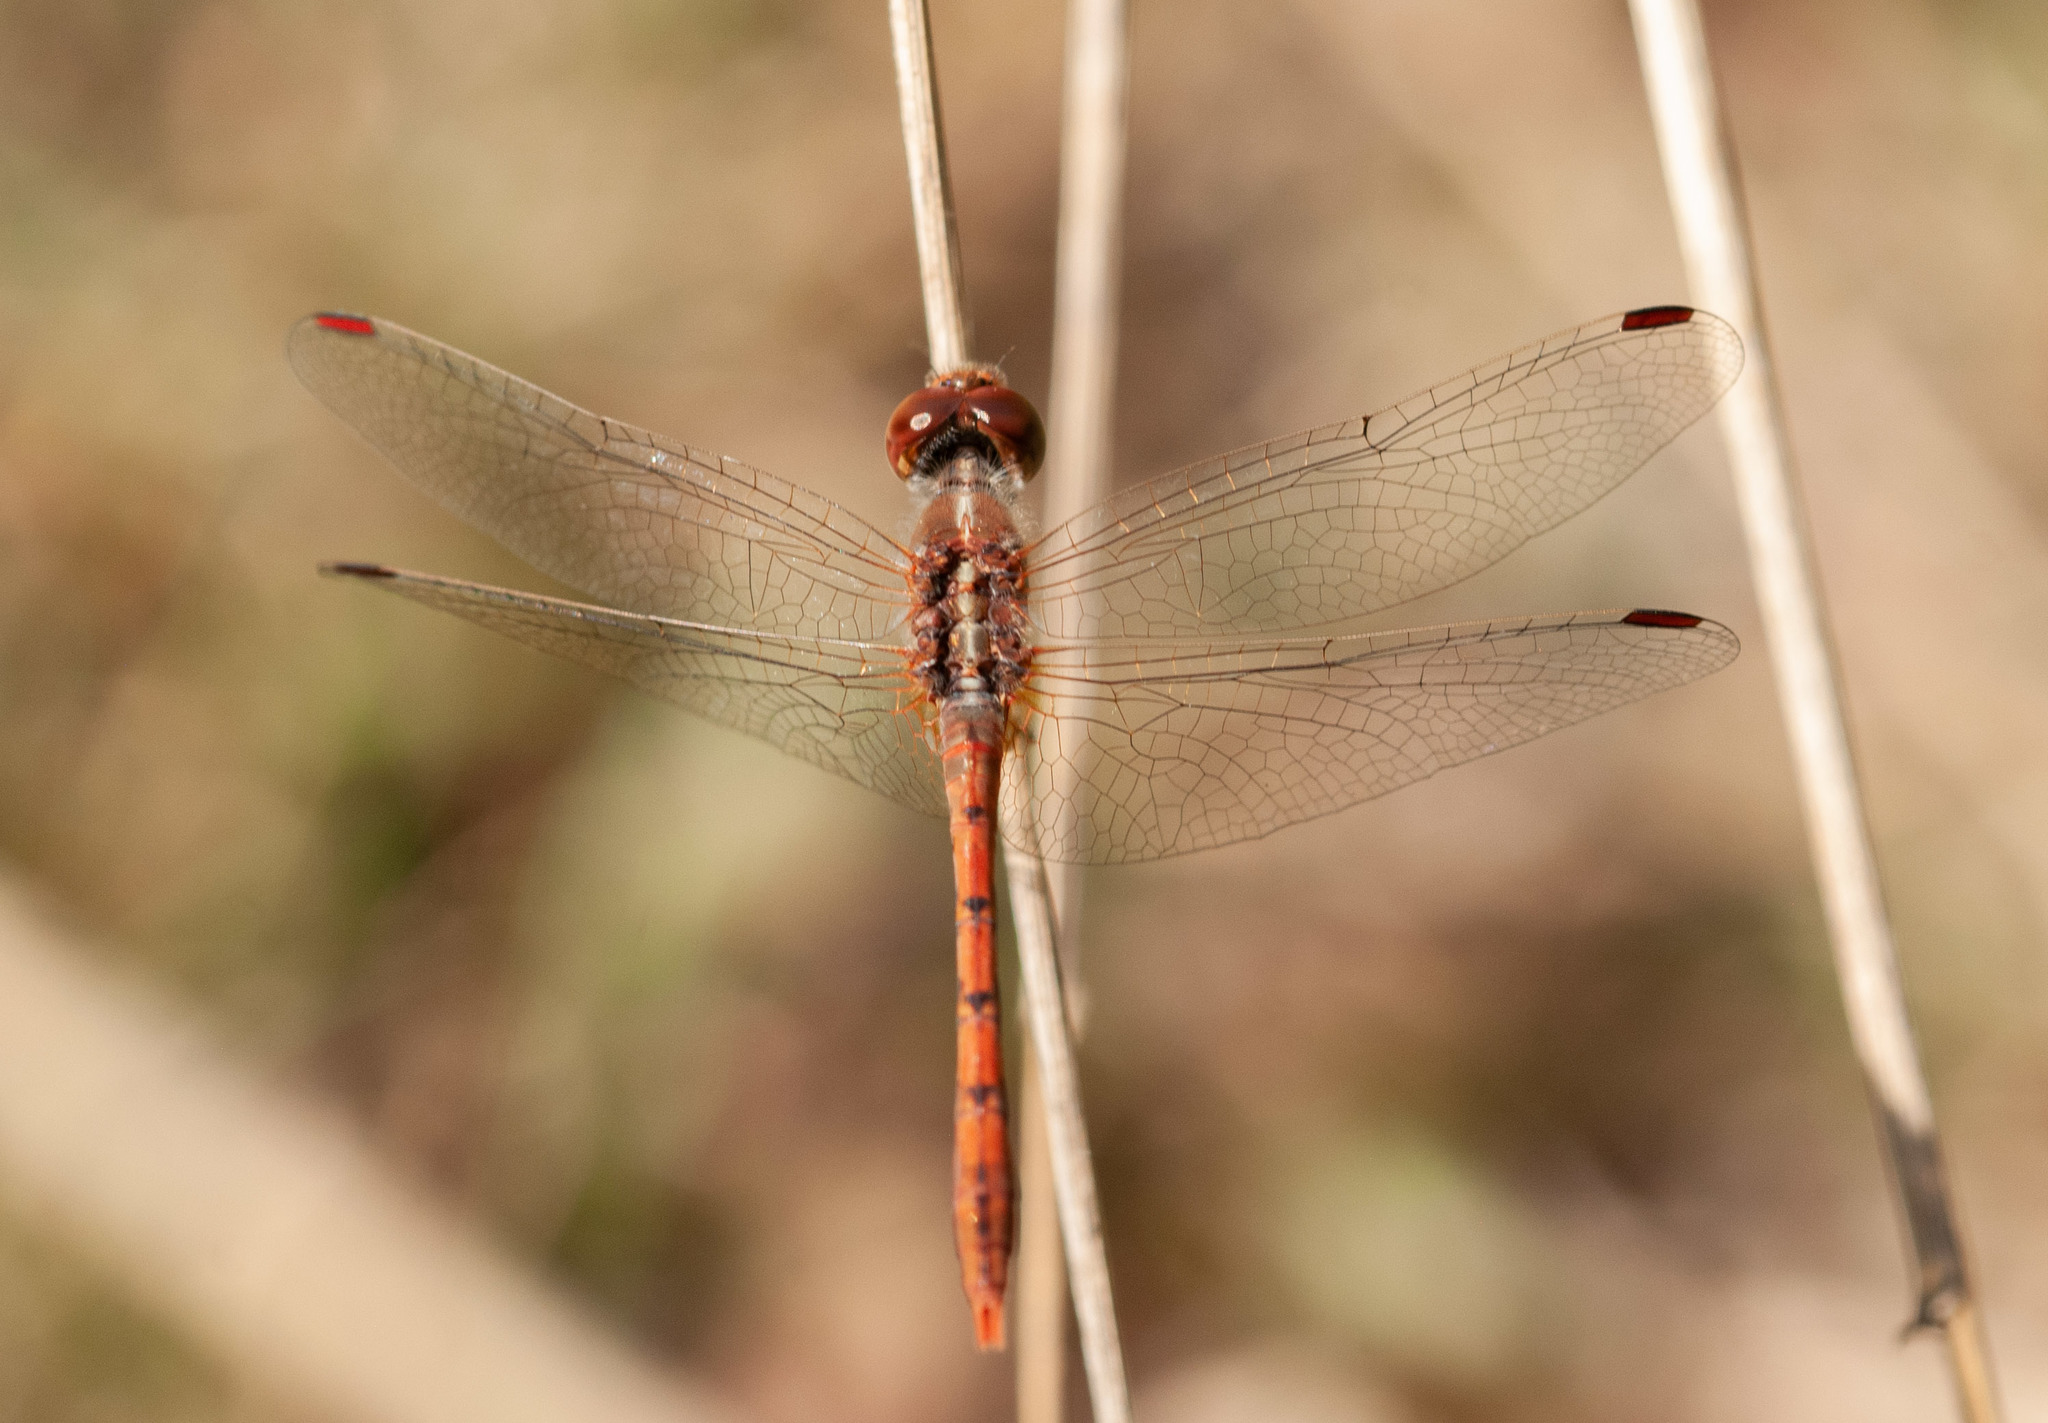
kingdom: Animalia
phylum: Arthropoda
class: Insecta
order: Odonata
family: Libellulidae
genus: Diplacodes
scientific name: Diplacodes bipunctata
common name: Red percher dragonfly
